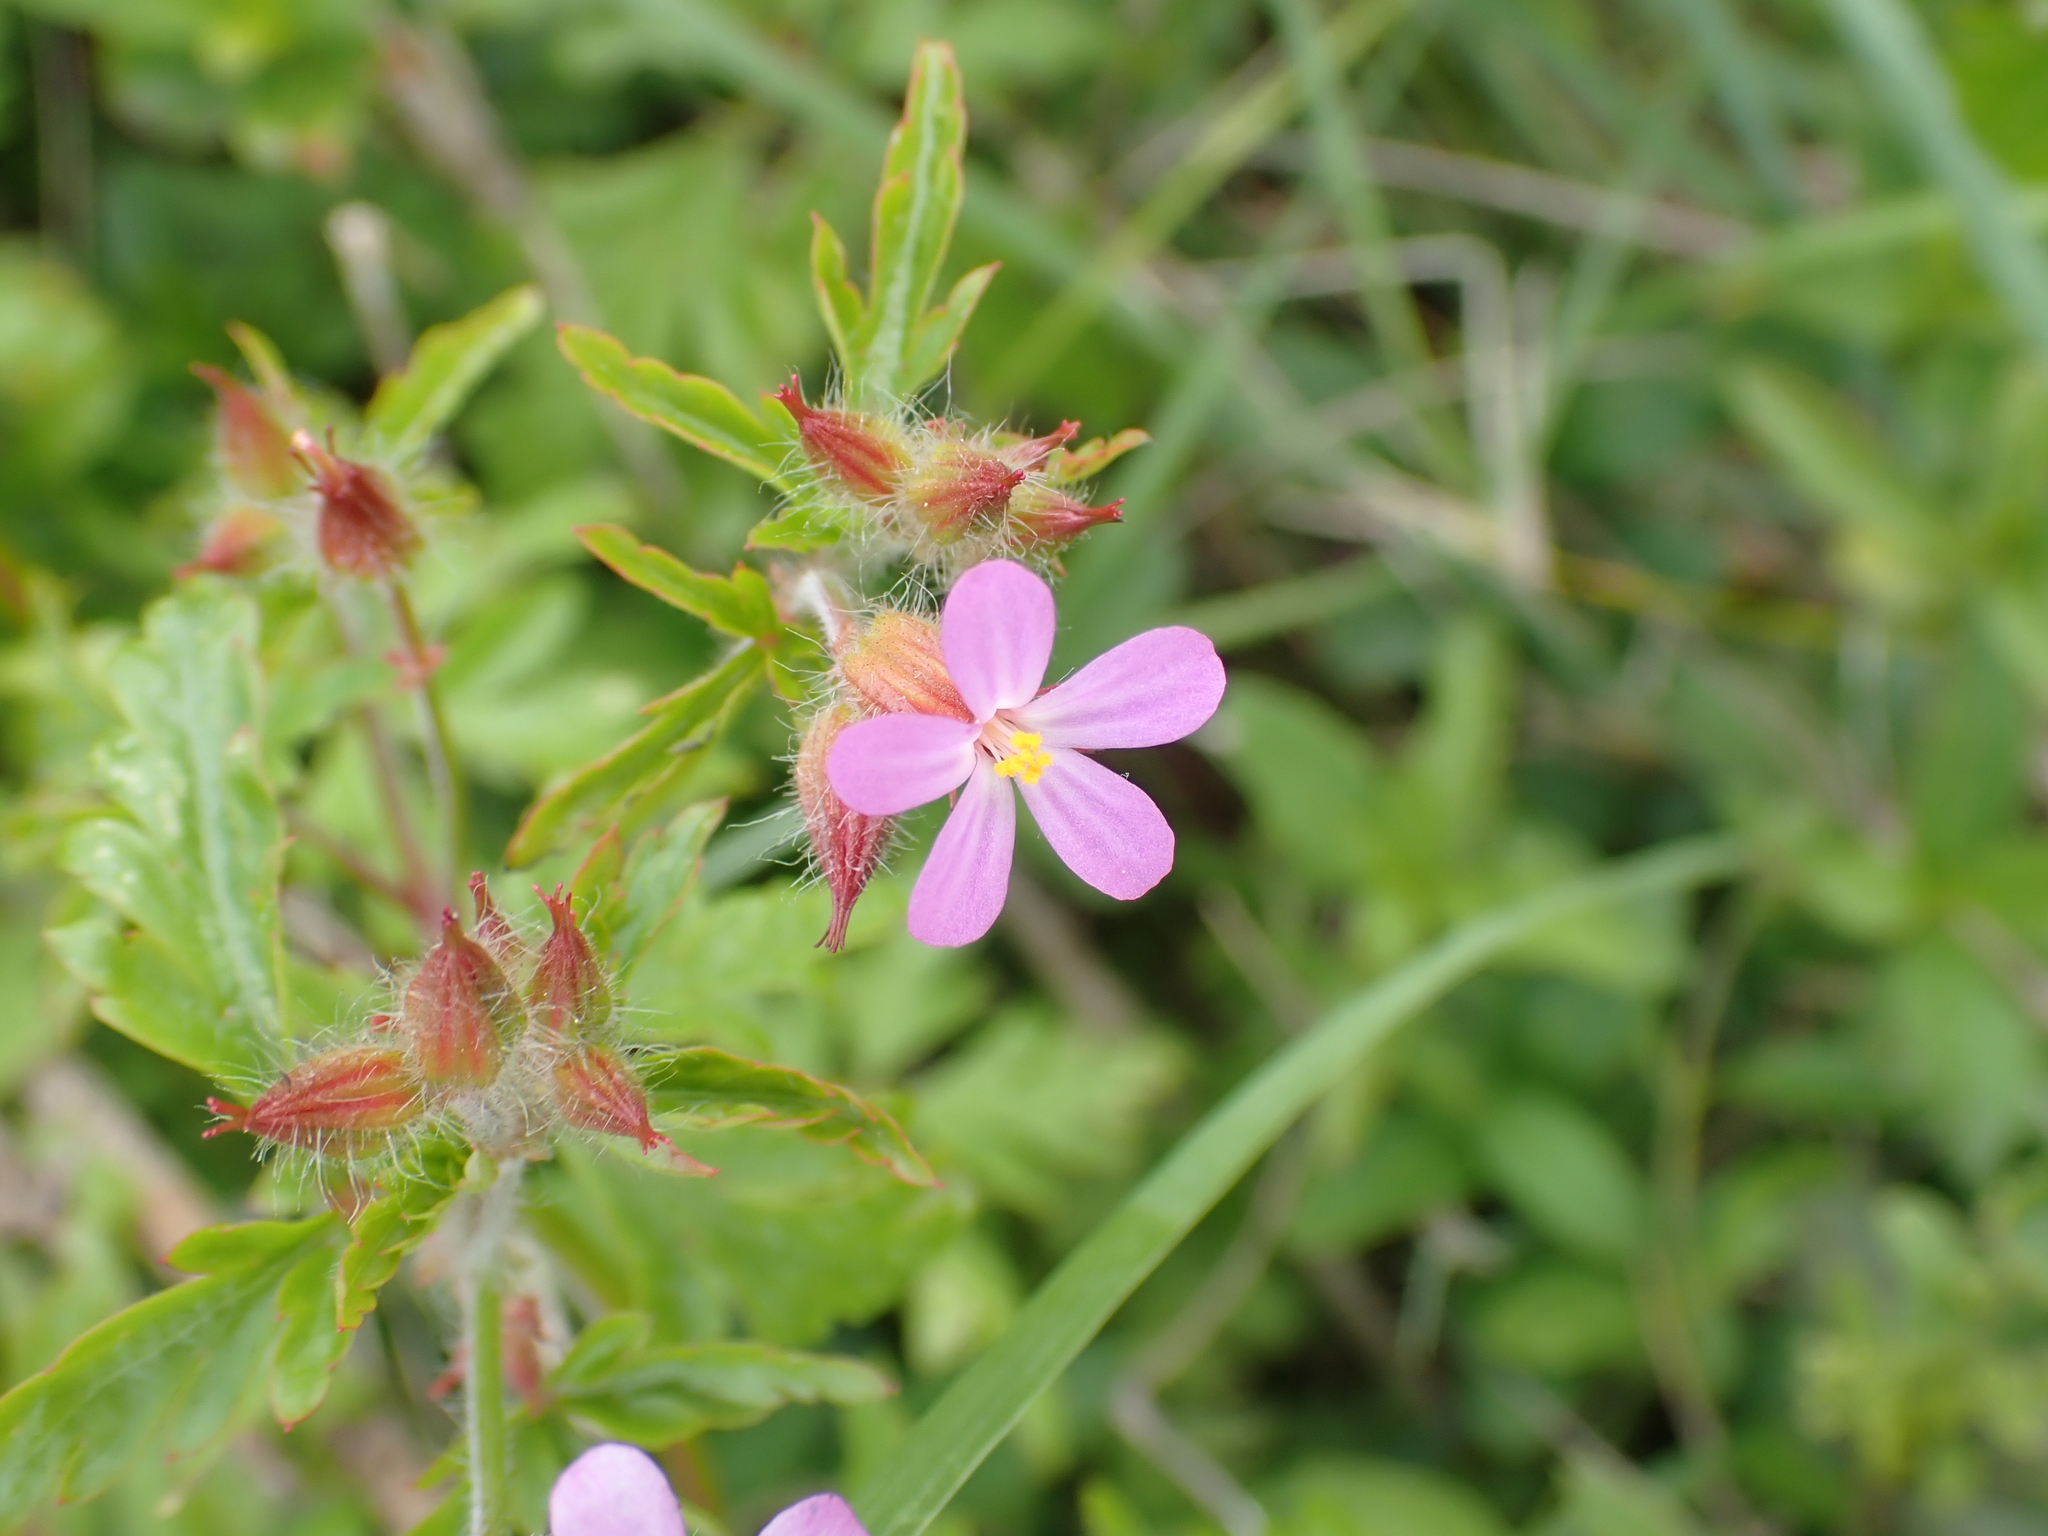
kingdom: Plantae
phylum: Tracheophyta
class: Magnoliopsida
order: Geraniales
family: Geraniaceae
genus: Geranium
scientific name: Geranium purpureum
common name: Little-robin
